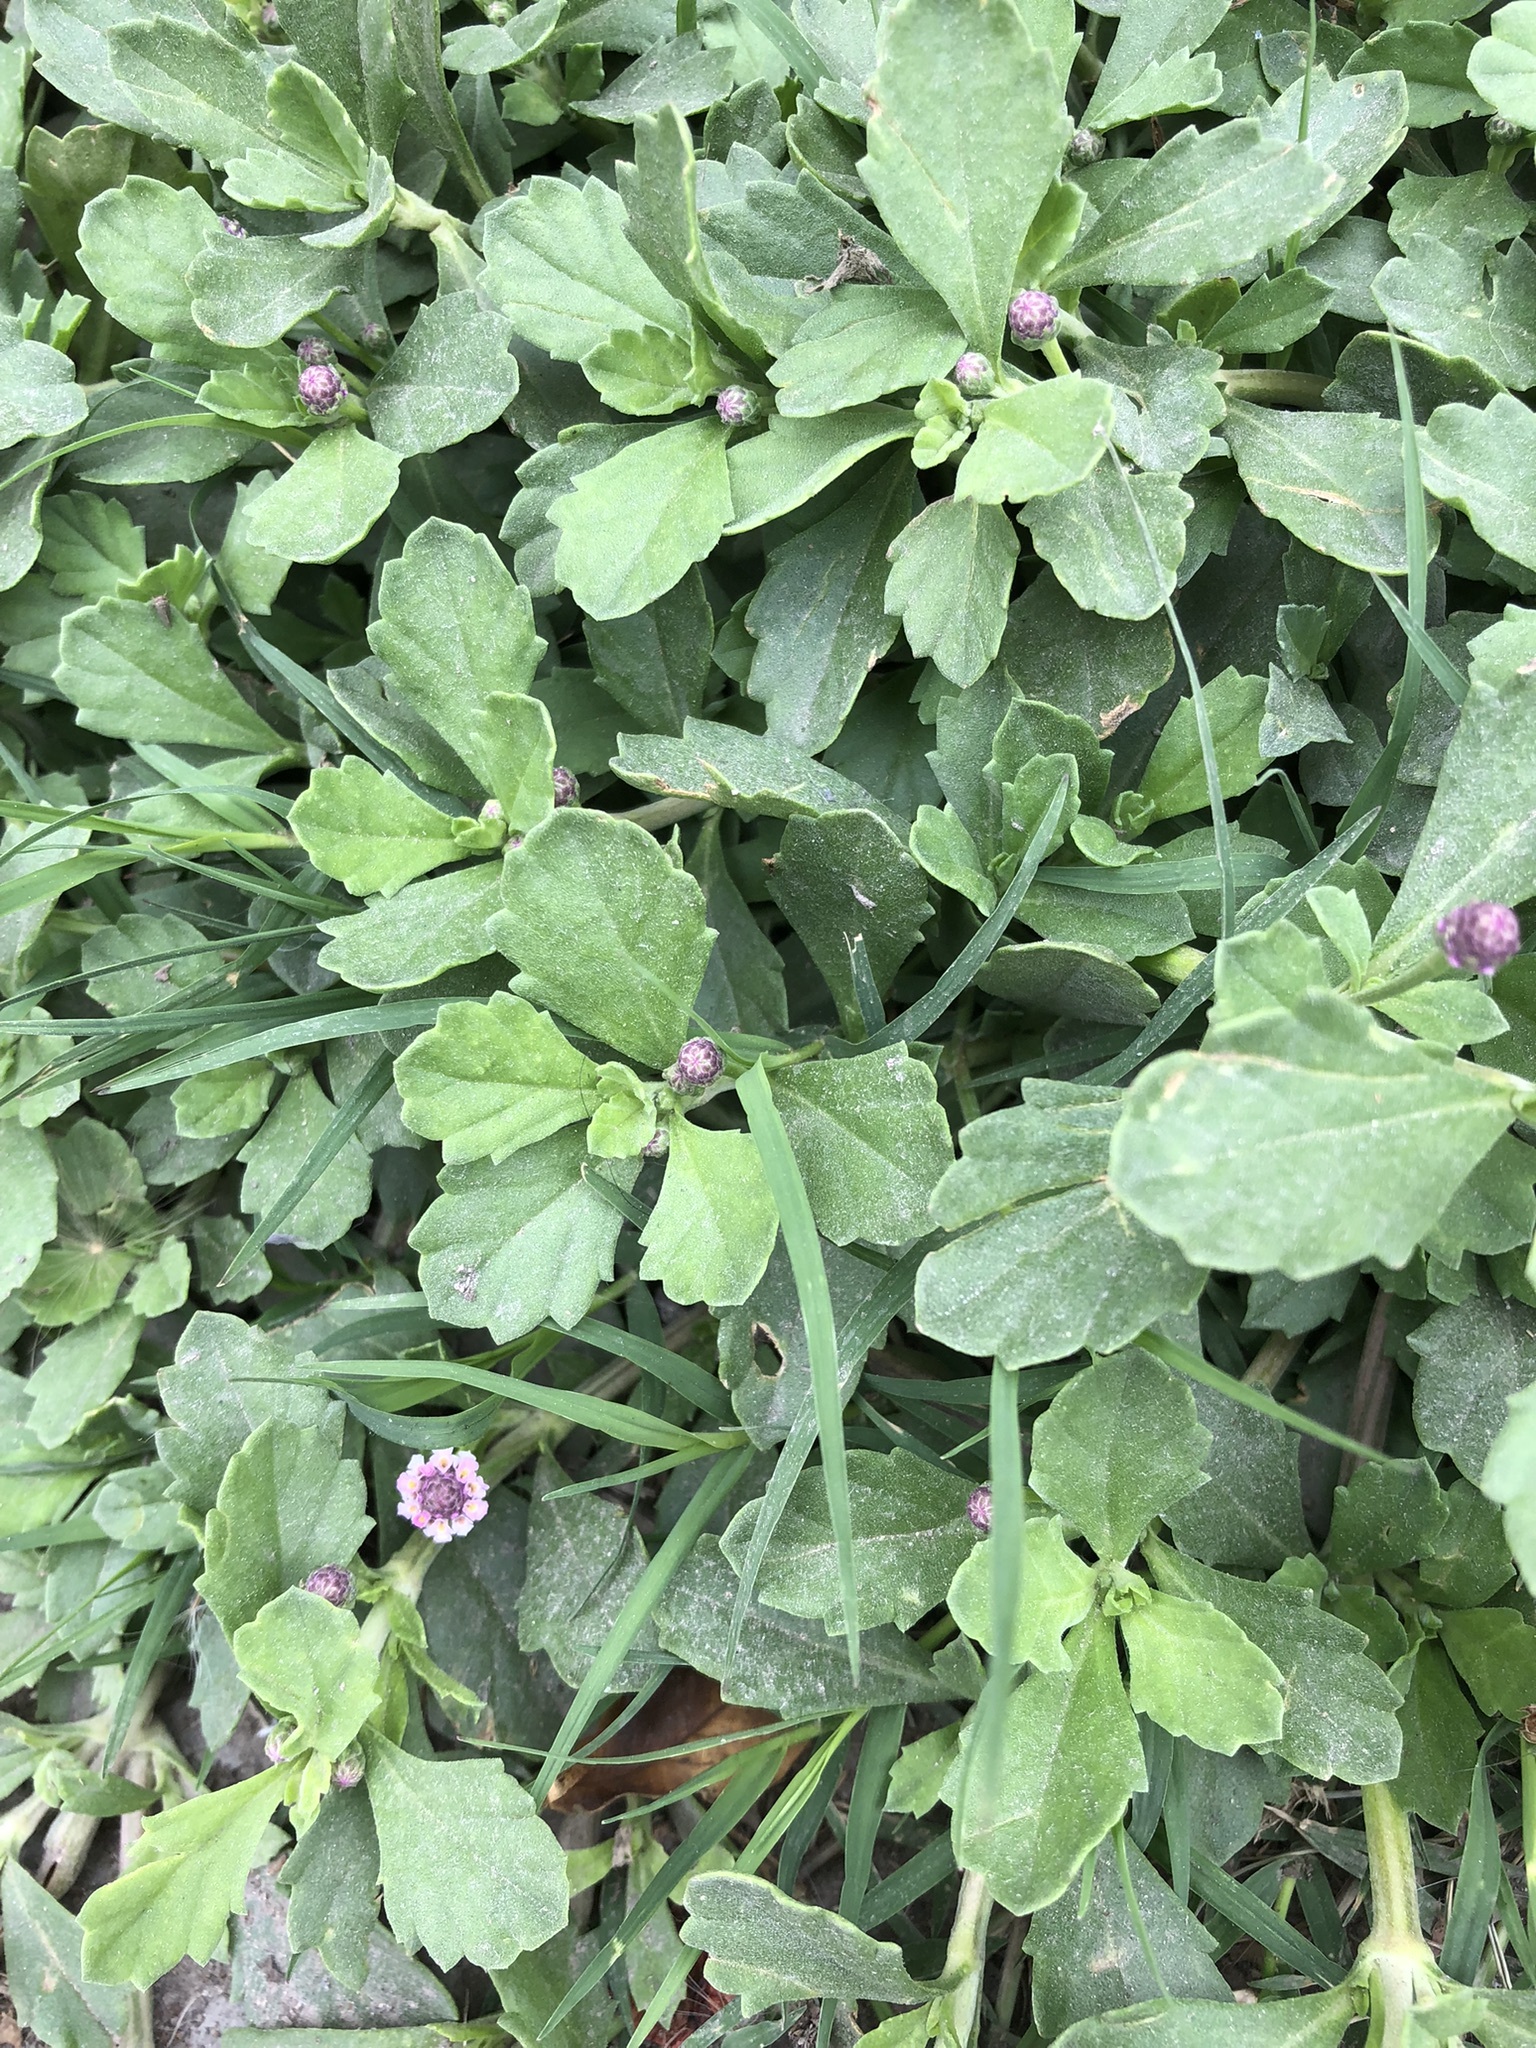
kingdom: Plantae
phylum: Tracheophyta
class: Magnoliopsida
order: Lamiales
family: Verbenaceae
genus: Phyla
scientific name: Phyla nodiflora
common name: Frogfruit
